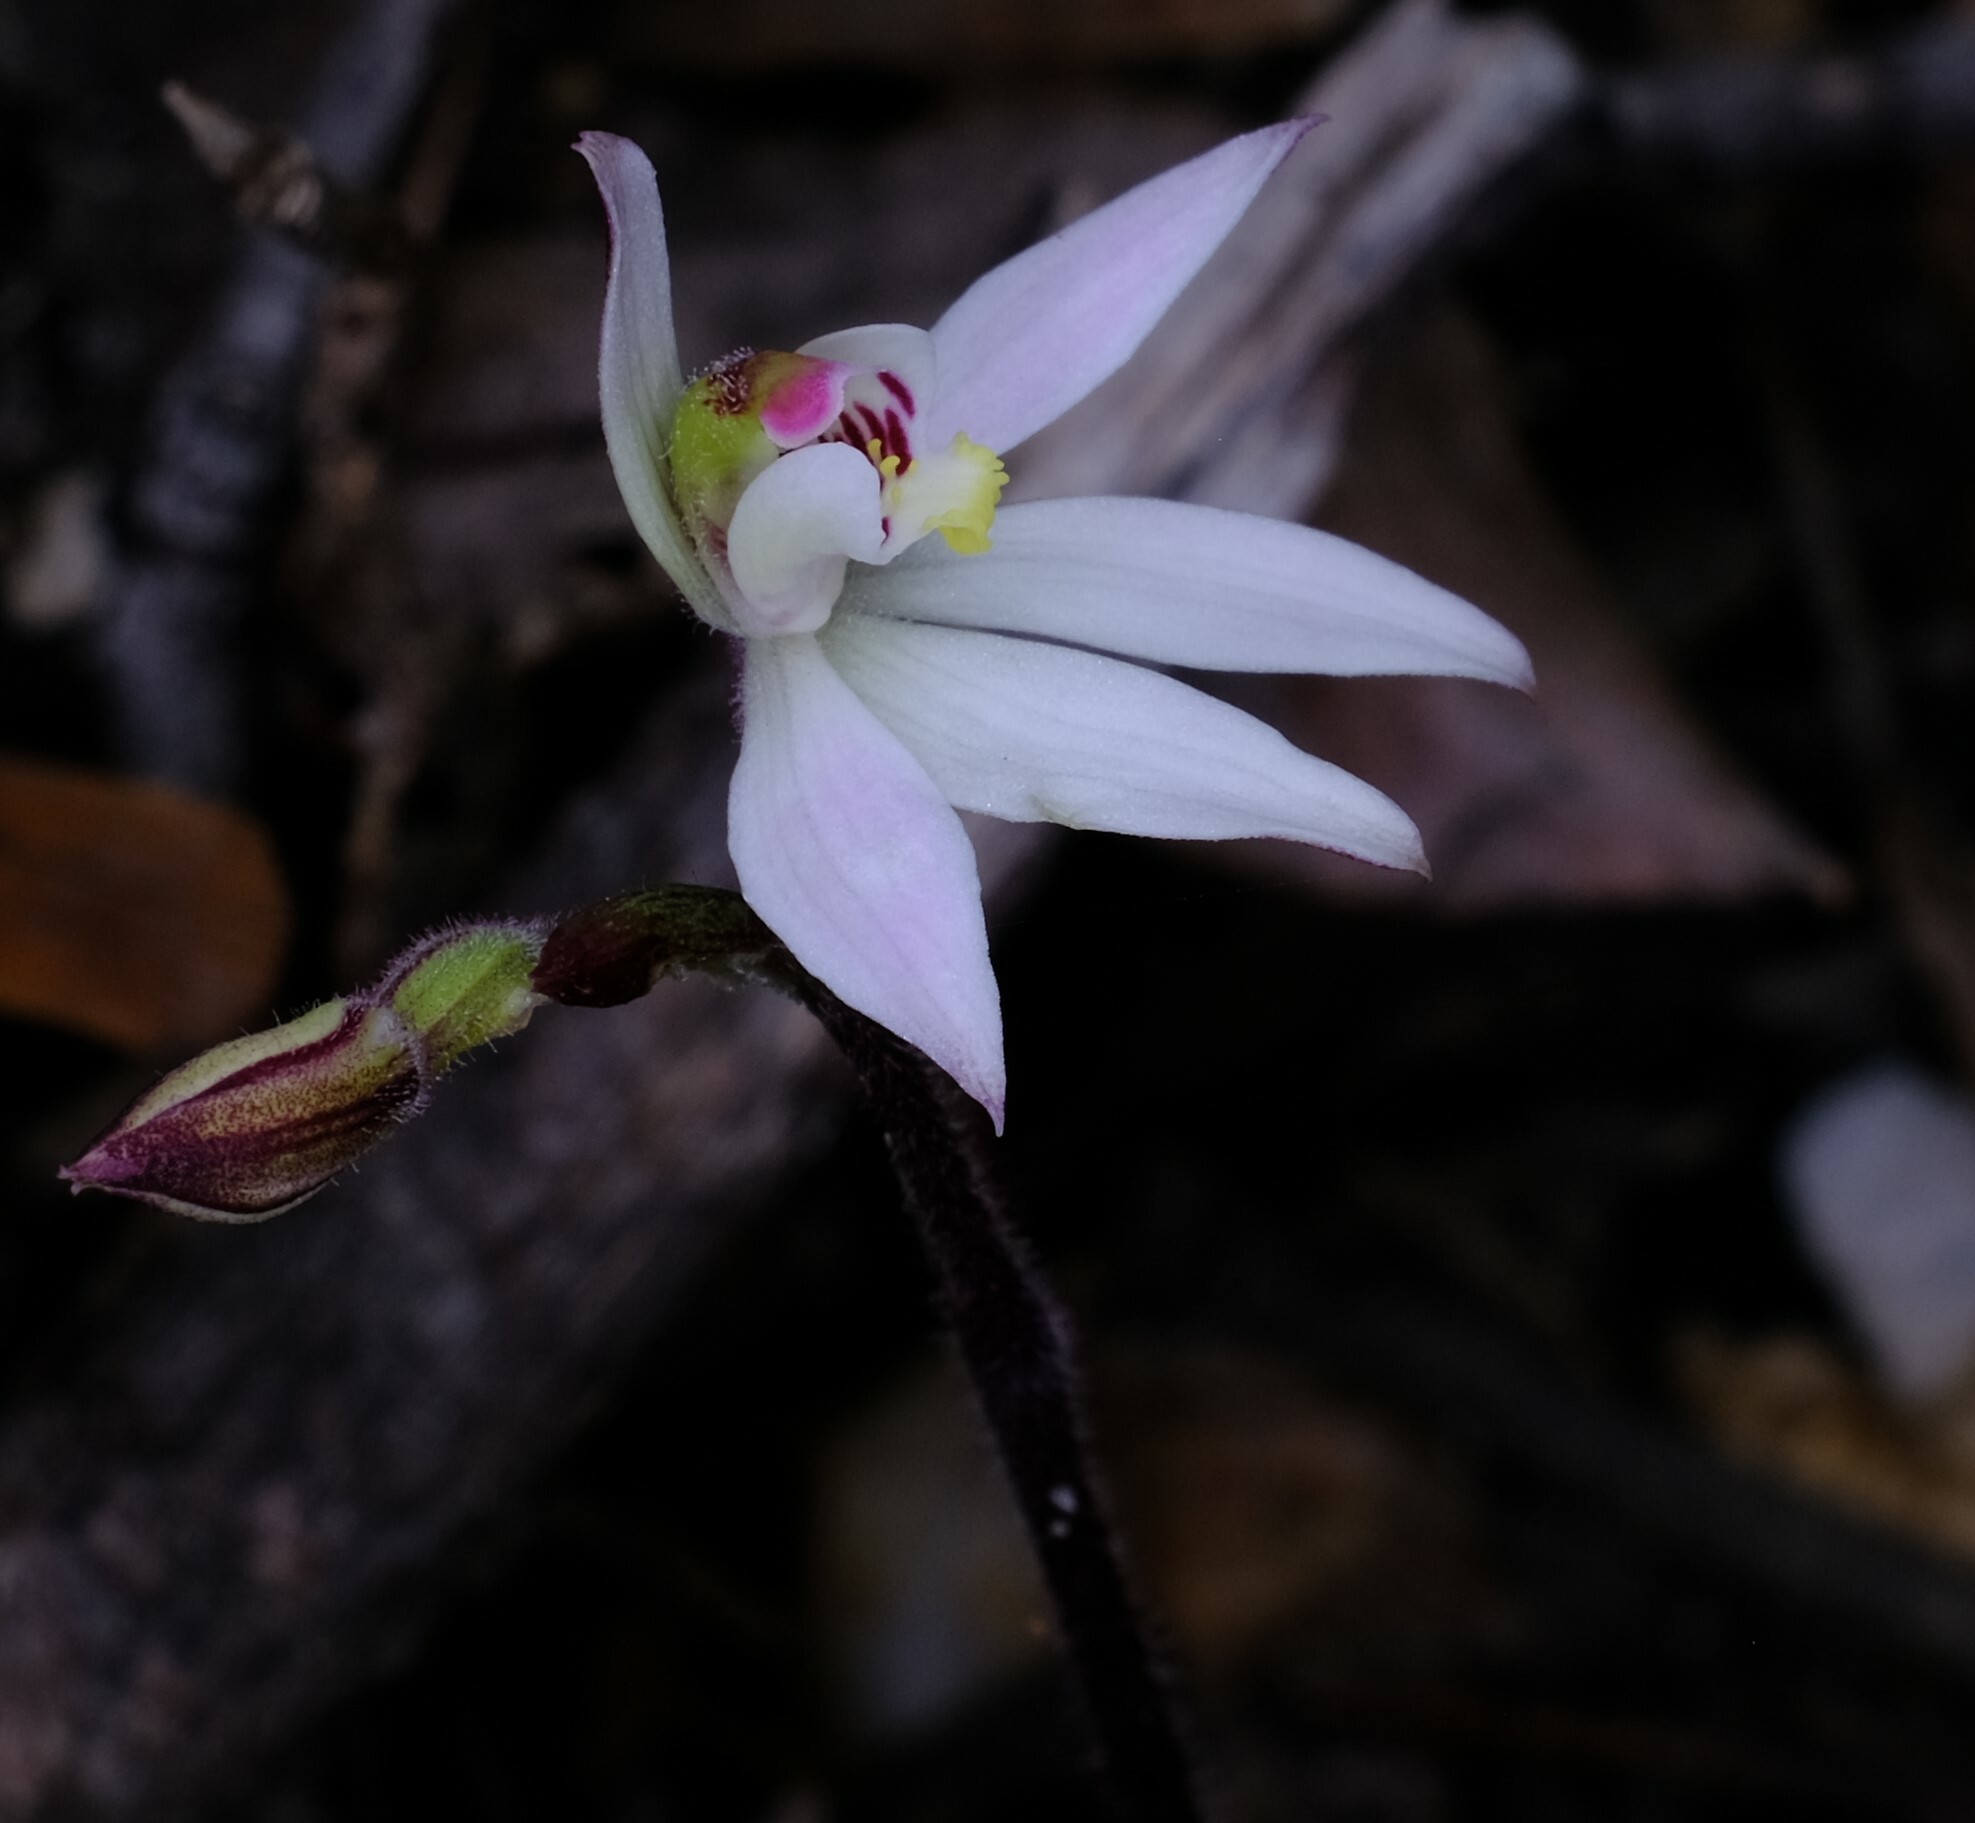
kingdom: Plantae
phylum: Tracheophyta
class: Liliopsida
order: Asparagales
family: Orchidaceae
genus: Caladenia
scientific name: Caladenia carnea
